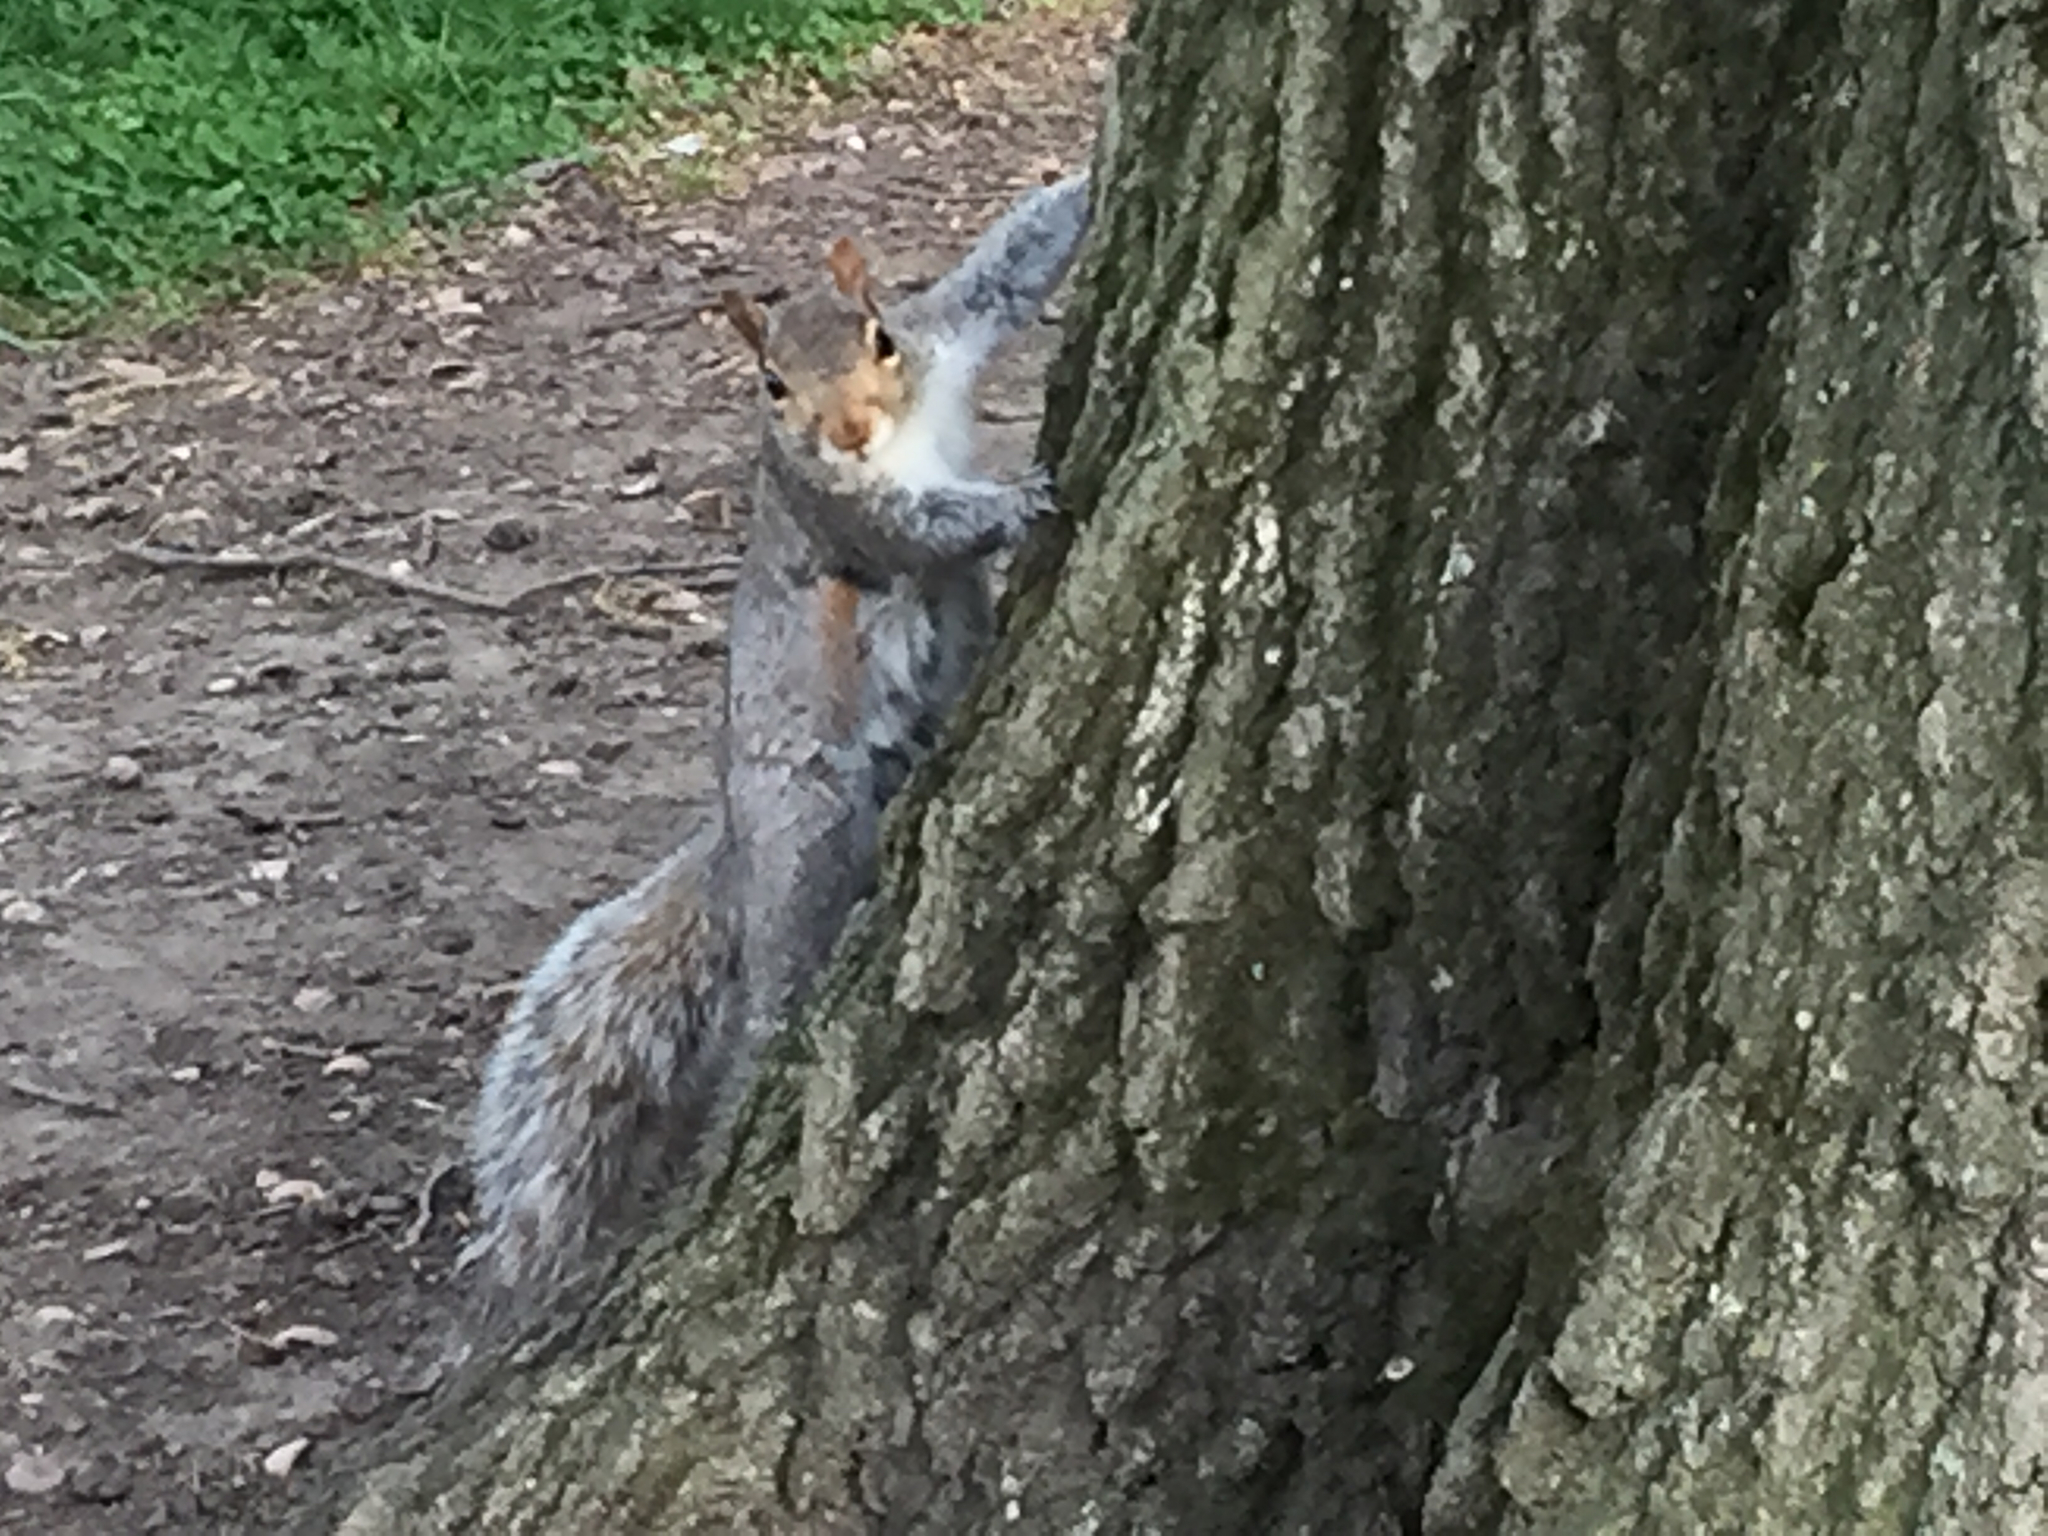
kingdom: Animalia
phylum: Chordata
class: Mammalia
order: Rodentia
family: Sciuridae
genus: Sciurus
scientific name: Sciurus carolinensis
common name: Eastern gray squirrel
